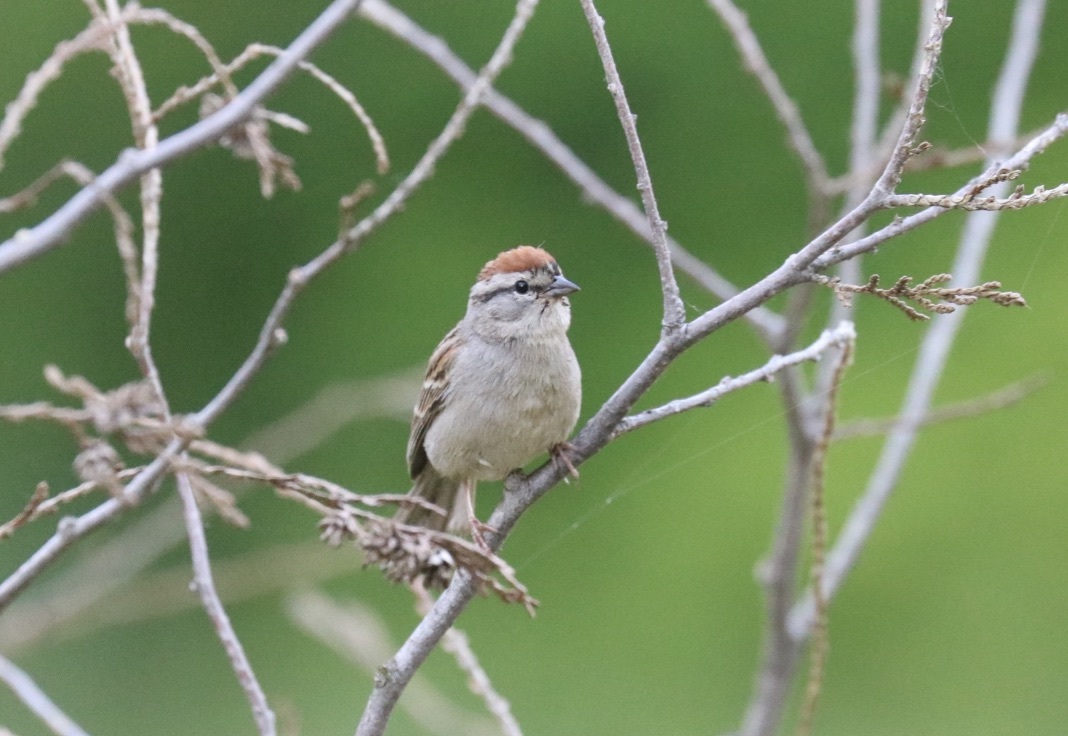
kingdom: Animalia
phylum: Chordata
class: Aves
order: Passeriformes
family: Passerellidae
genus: Spizella
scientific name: Spizella passerina
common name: Chipping sparrow
